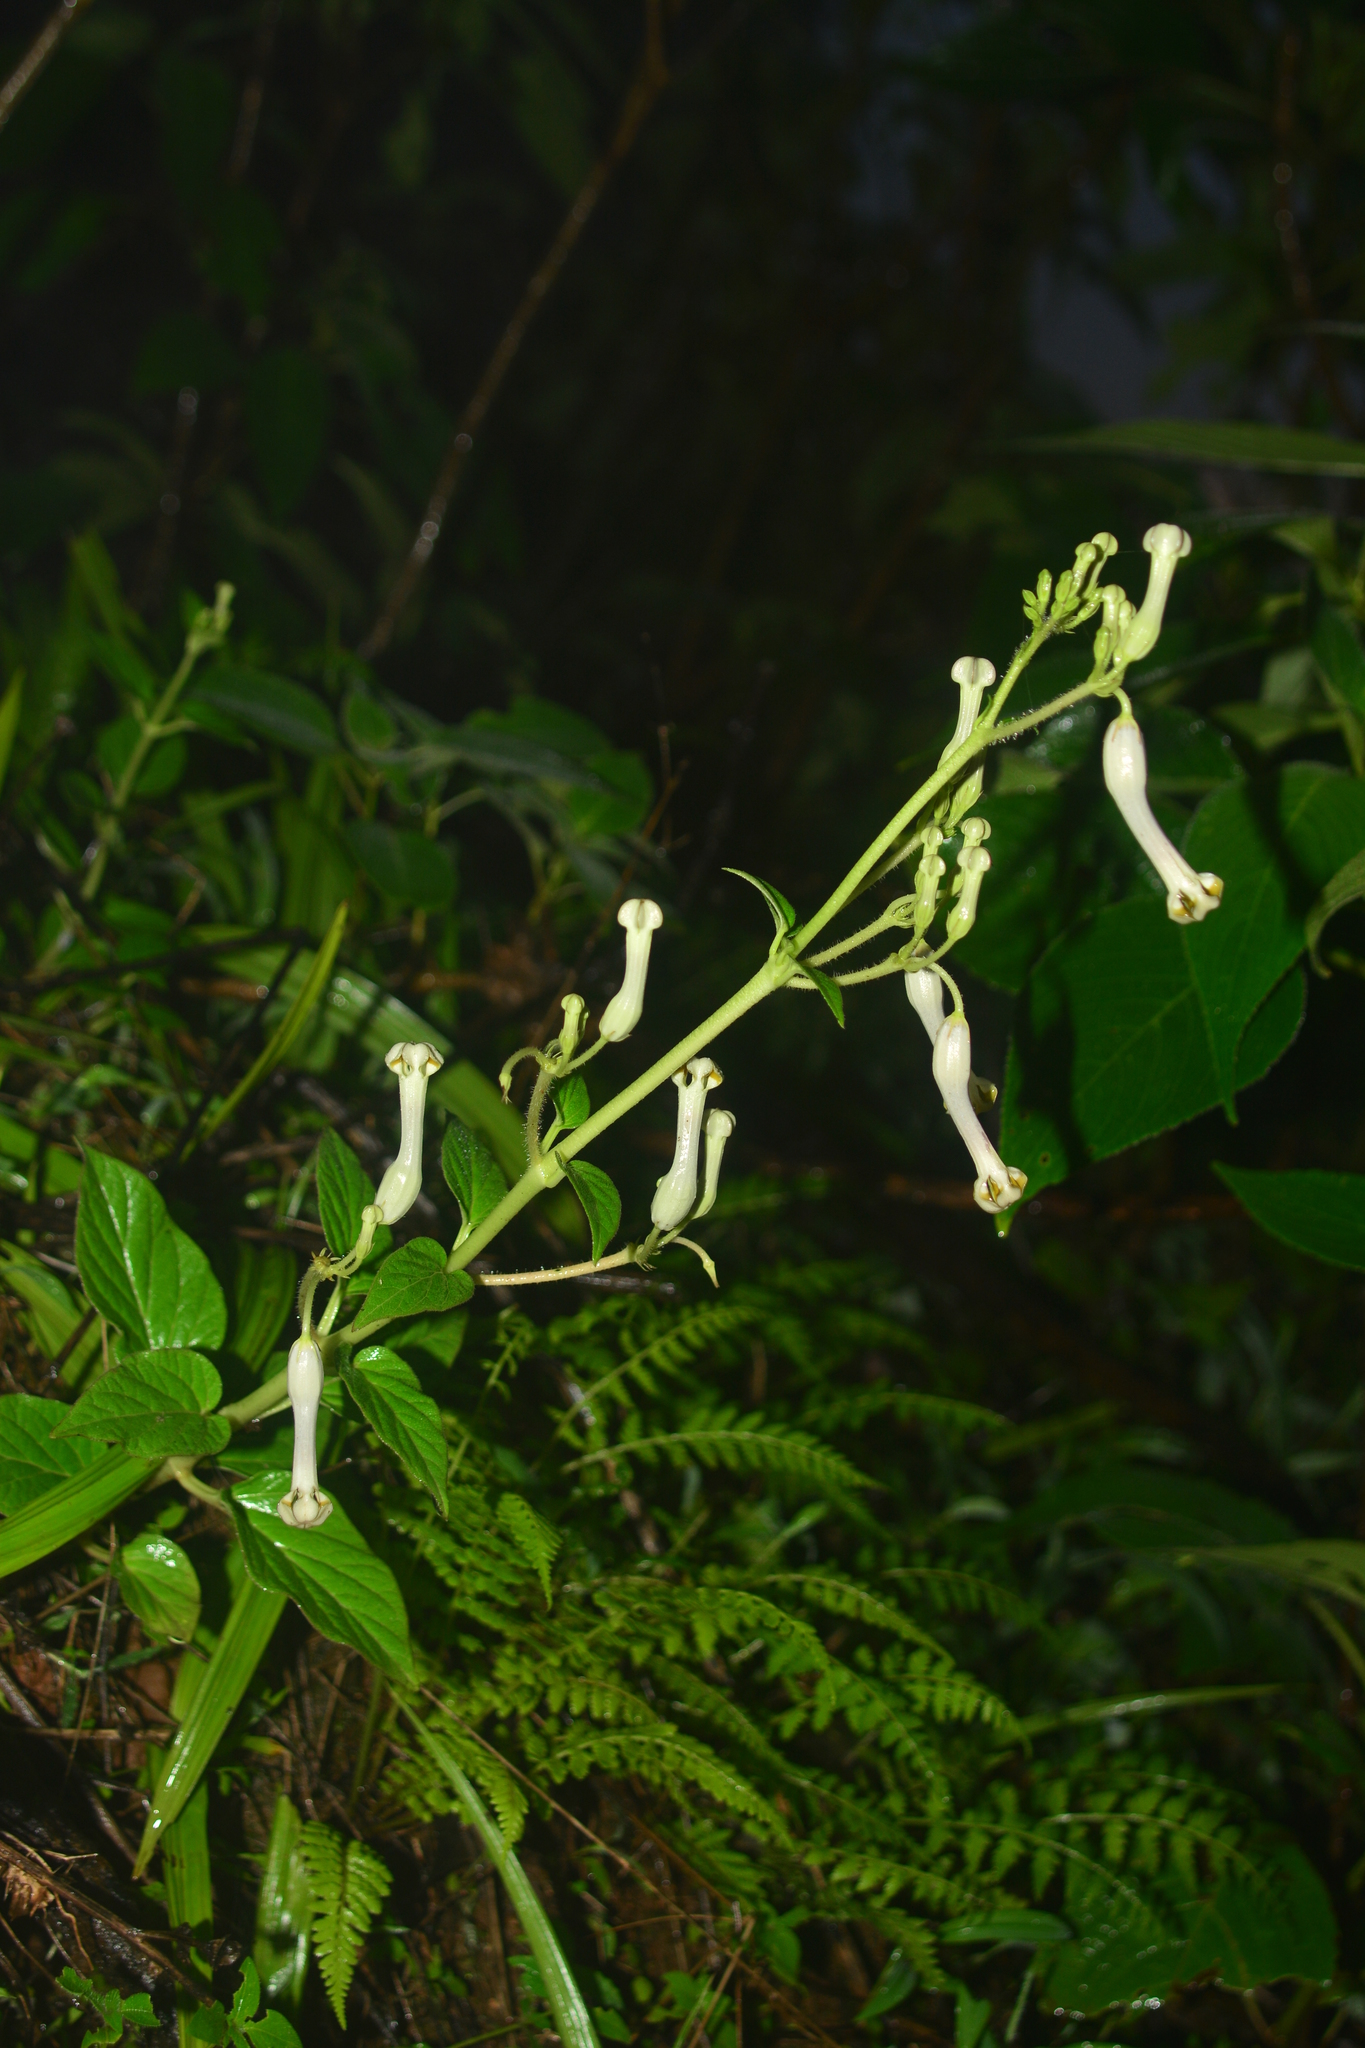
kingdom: Plantae
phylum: Tracheophyta
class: Magnoliopsida
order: Gentianales
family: Apocynaceae
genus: Ceropegia
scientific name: Ceropegia lawii
